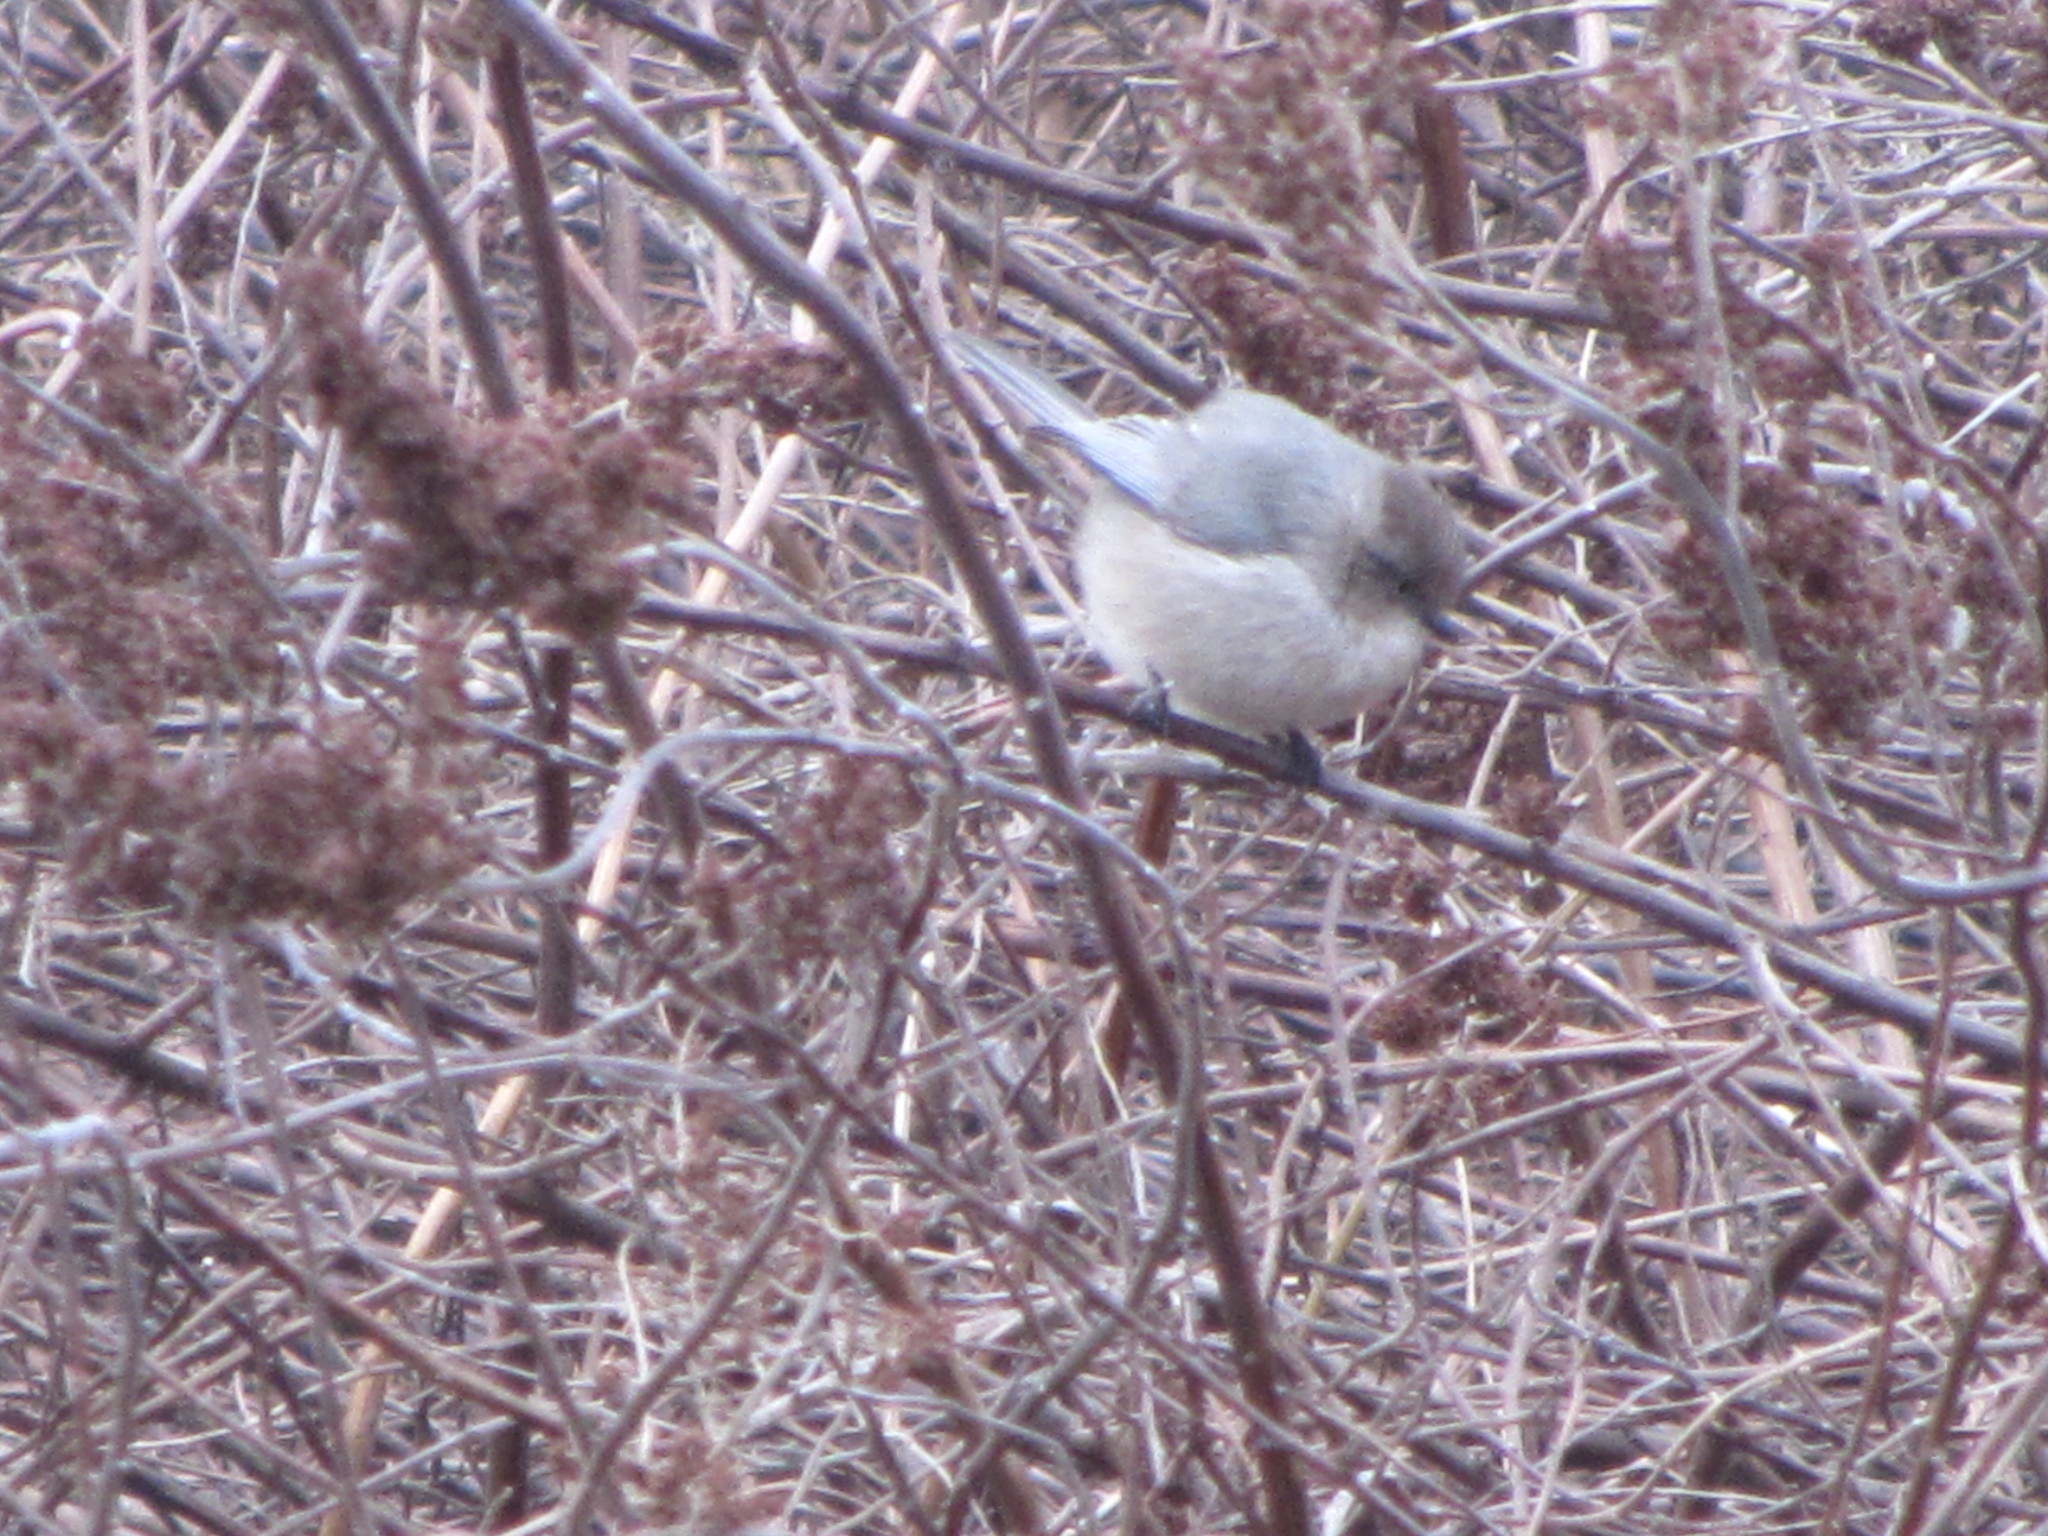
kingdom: Animalia
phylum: Chordata
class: Aves
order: Passeriformes
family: Aegithalidae
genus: Psaltriparus
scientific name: Psaltriparus minimus
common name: American bushtit
